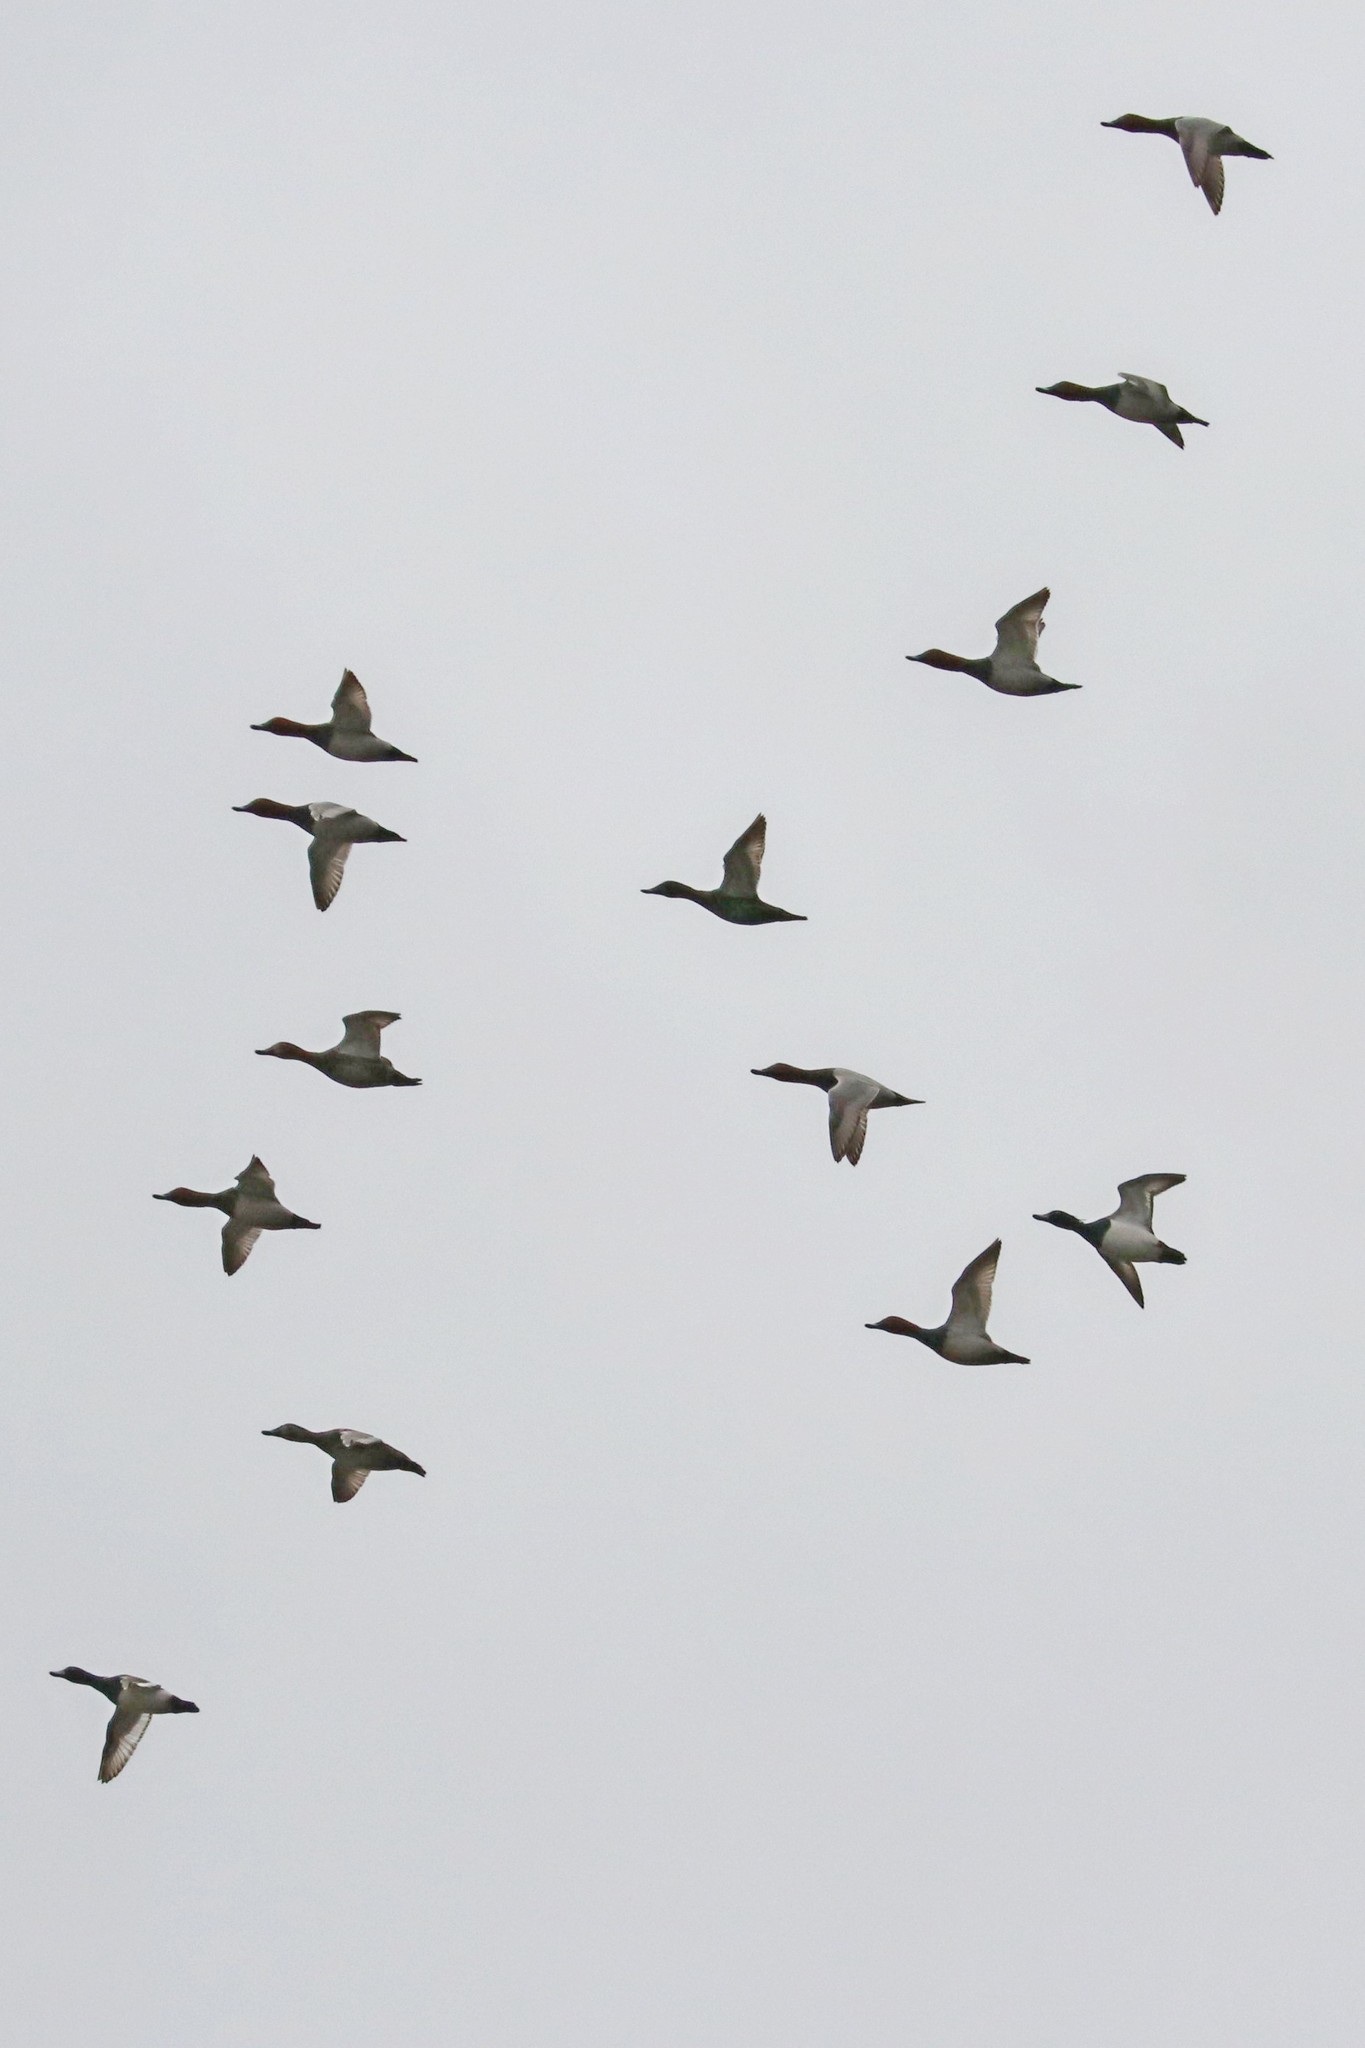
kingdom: Animalia
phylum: Chordata
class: Aves
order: Anseriformes
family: Anatidae
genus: Aythya
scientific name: Aythya ferina
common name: Common pochard
